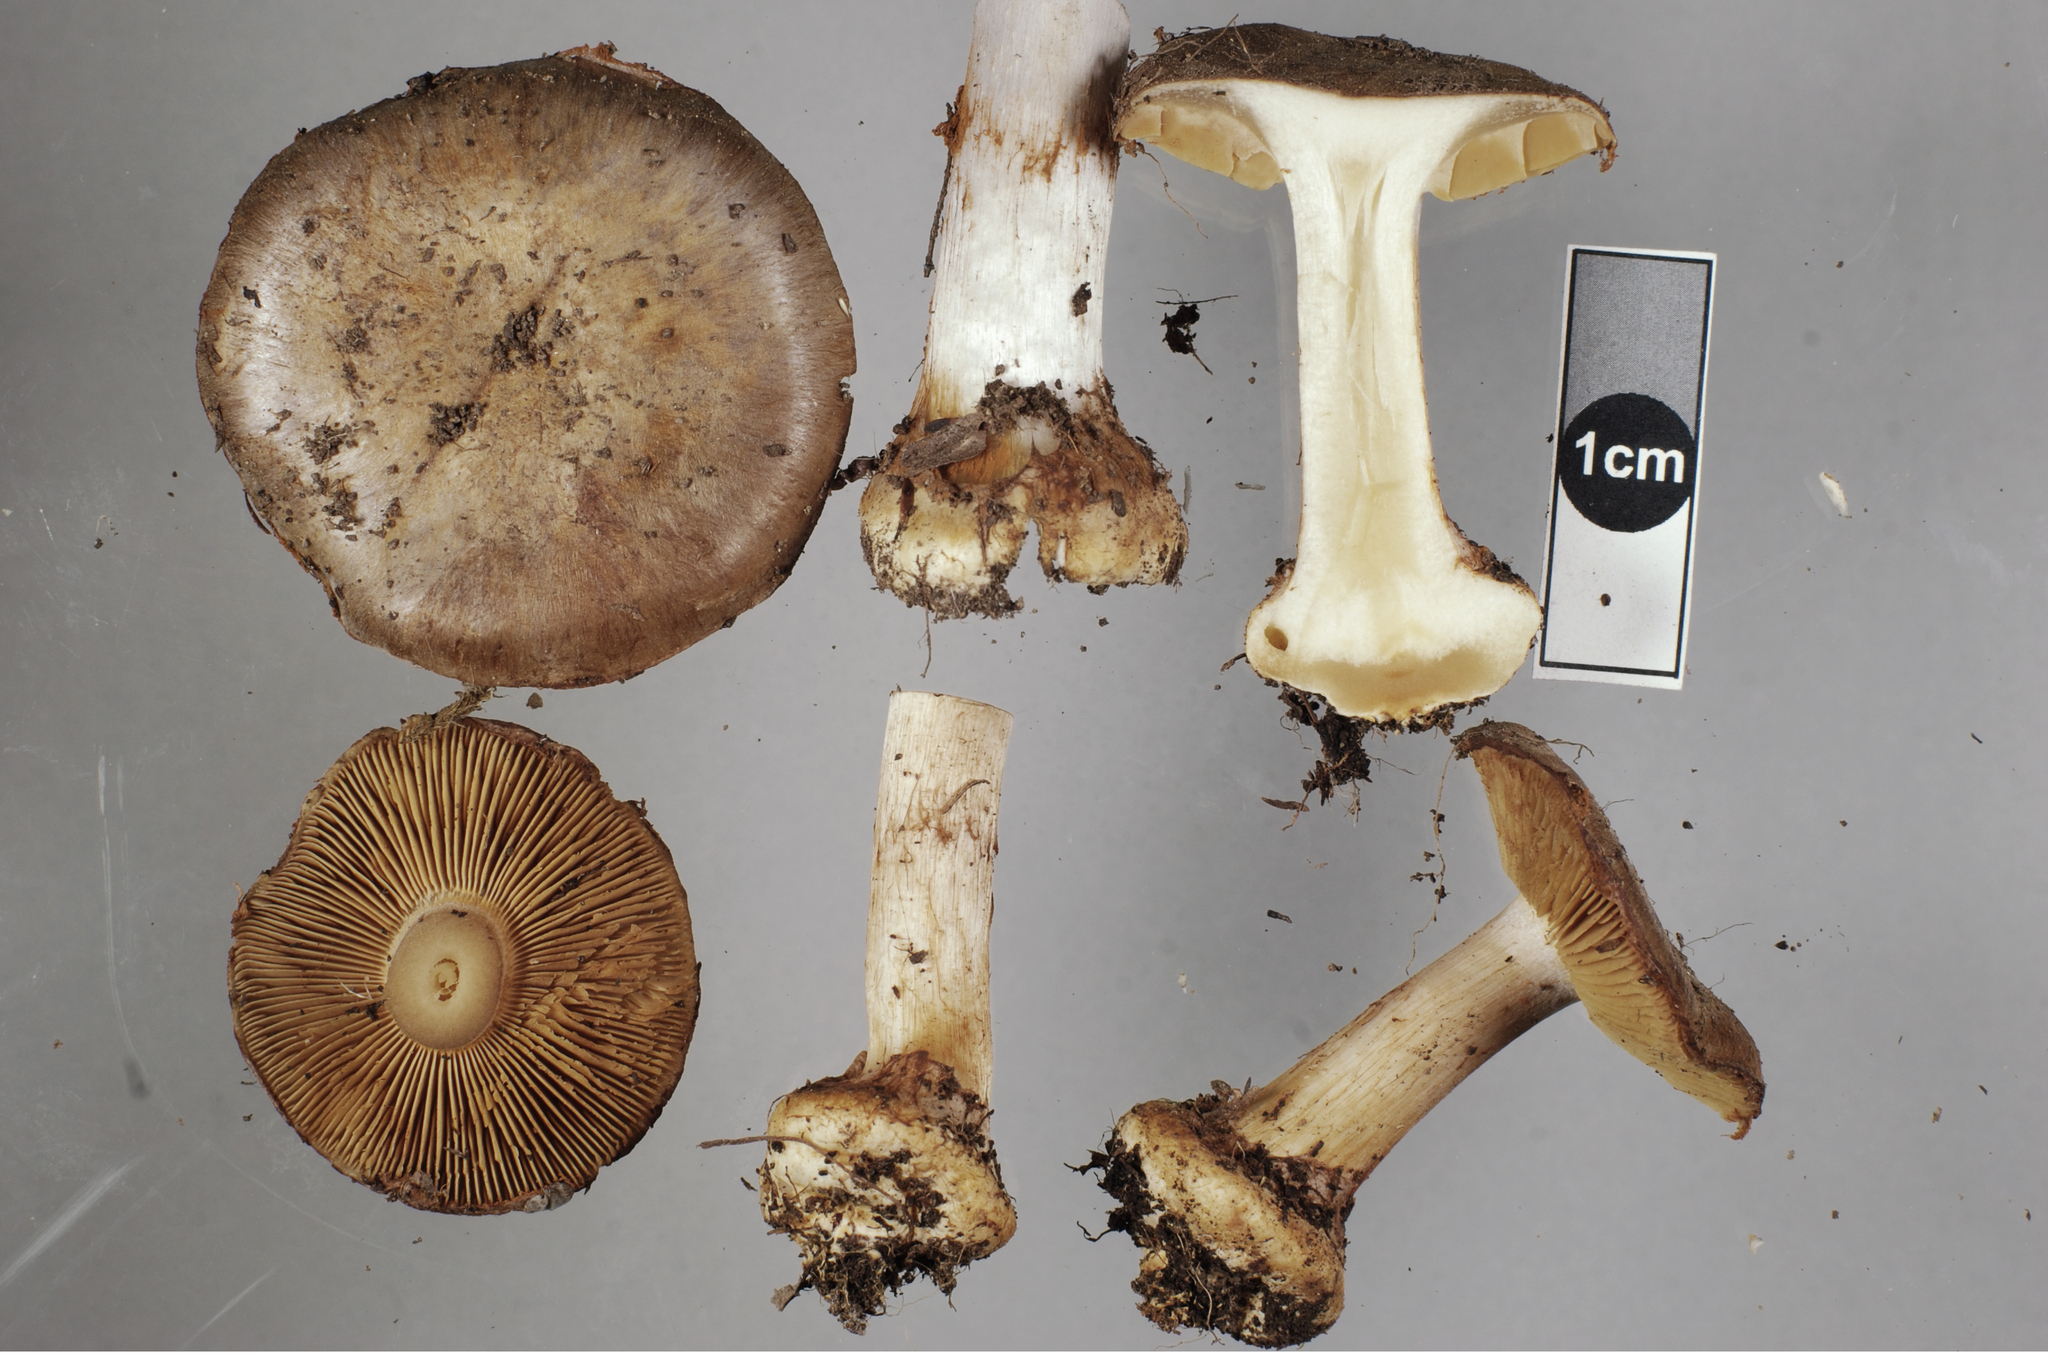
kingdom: Fungi
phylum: Basidiomycota
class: Agaricomycetes
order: Agaricales
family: Cortinariaceae
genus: Phlegmacium
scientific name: Phlegmacium
